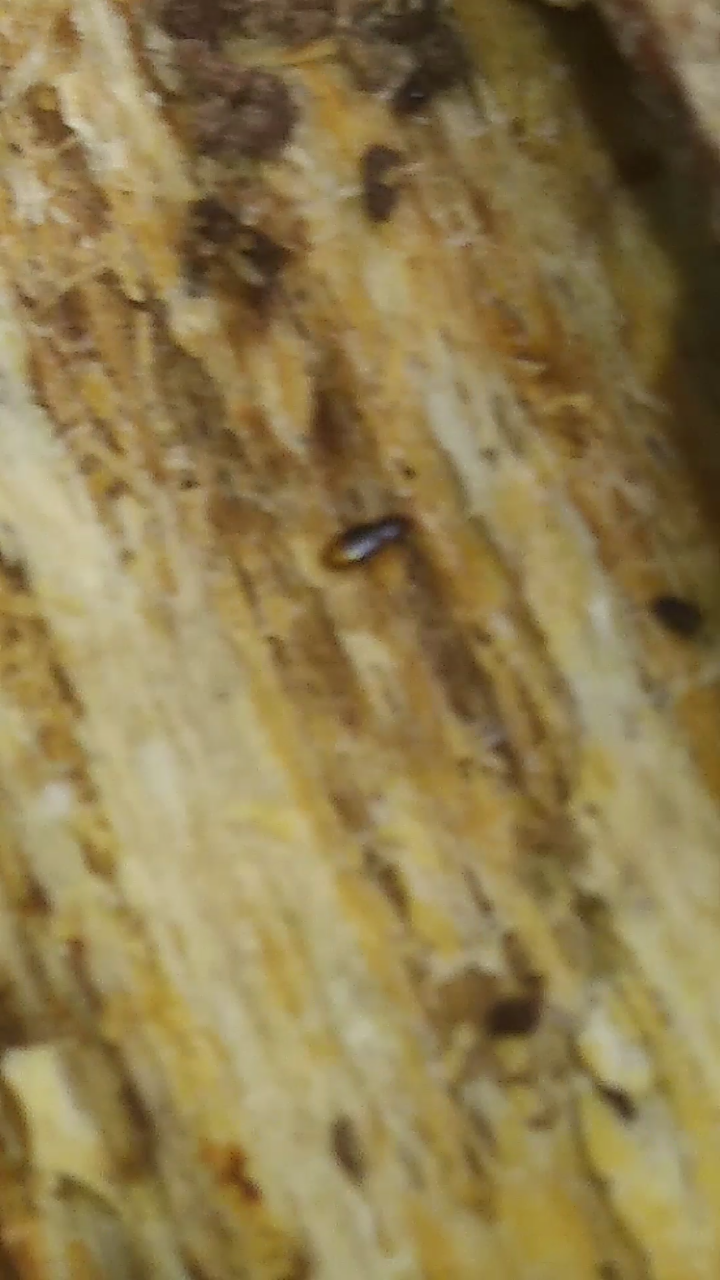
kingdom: Animalia
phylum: Arthropoda
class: Insecta
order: Coleoptera
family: Carabidae
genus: Mioptachys
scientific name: Mioptachys flavicauda
